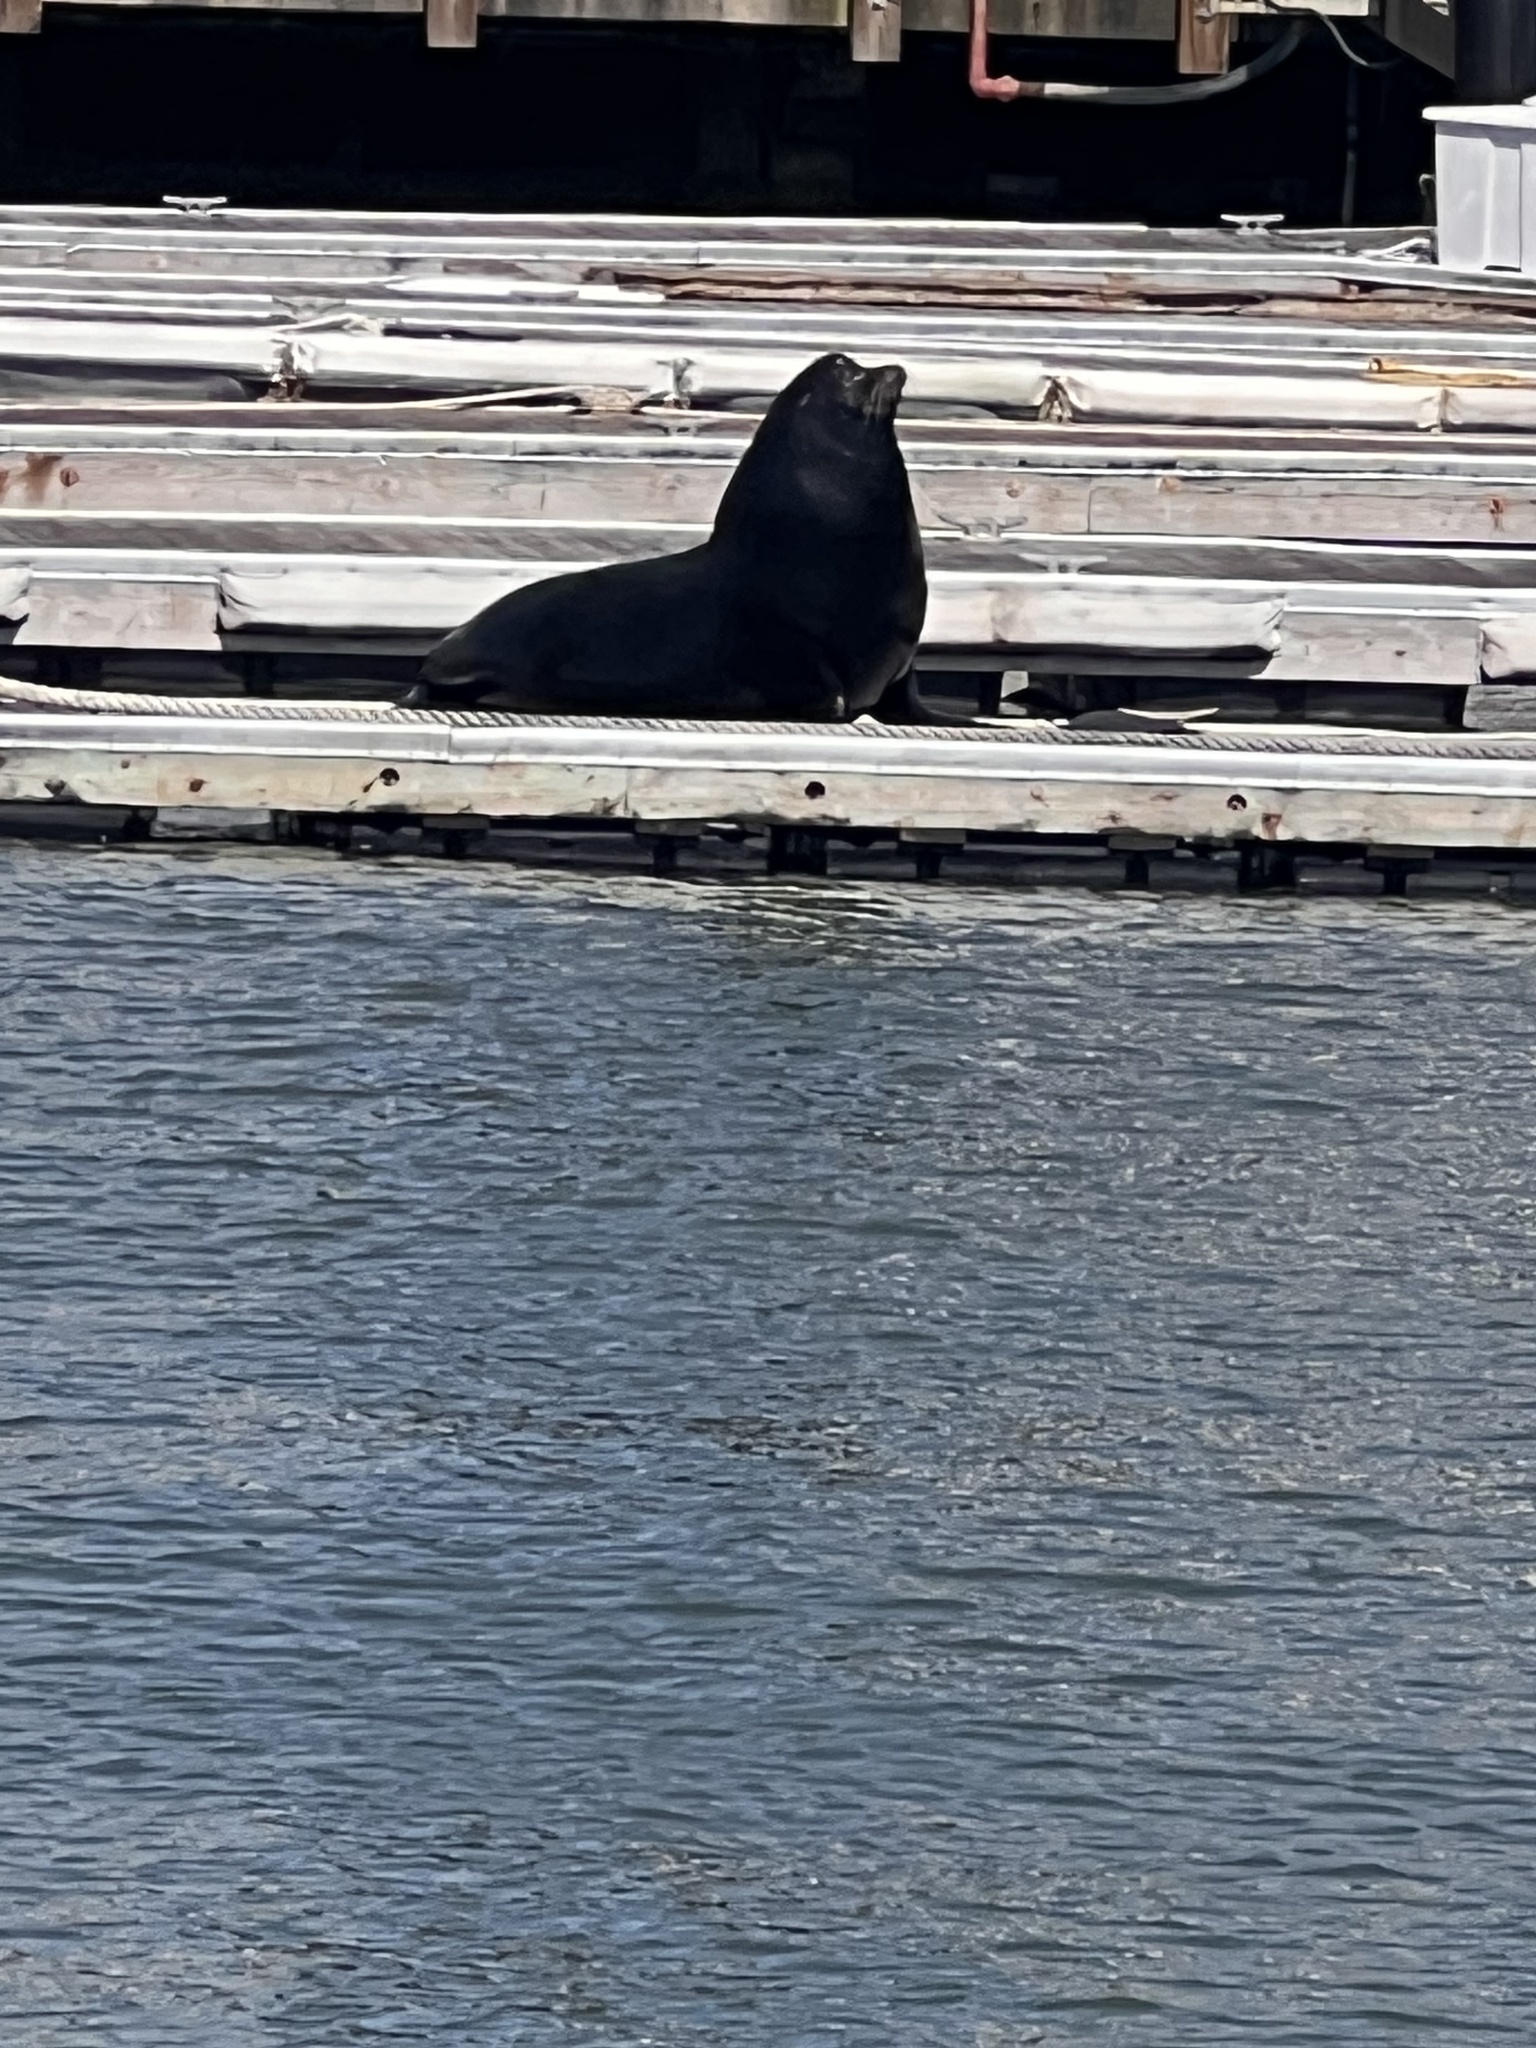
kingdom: Animalia
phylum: Chordata
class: Mammalia
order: Carnivora
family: Otariidae
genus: Zalophus
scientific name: Zalophus californianus
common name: California sea lion
